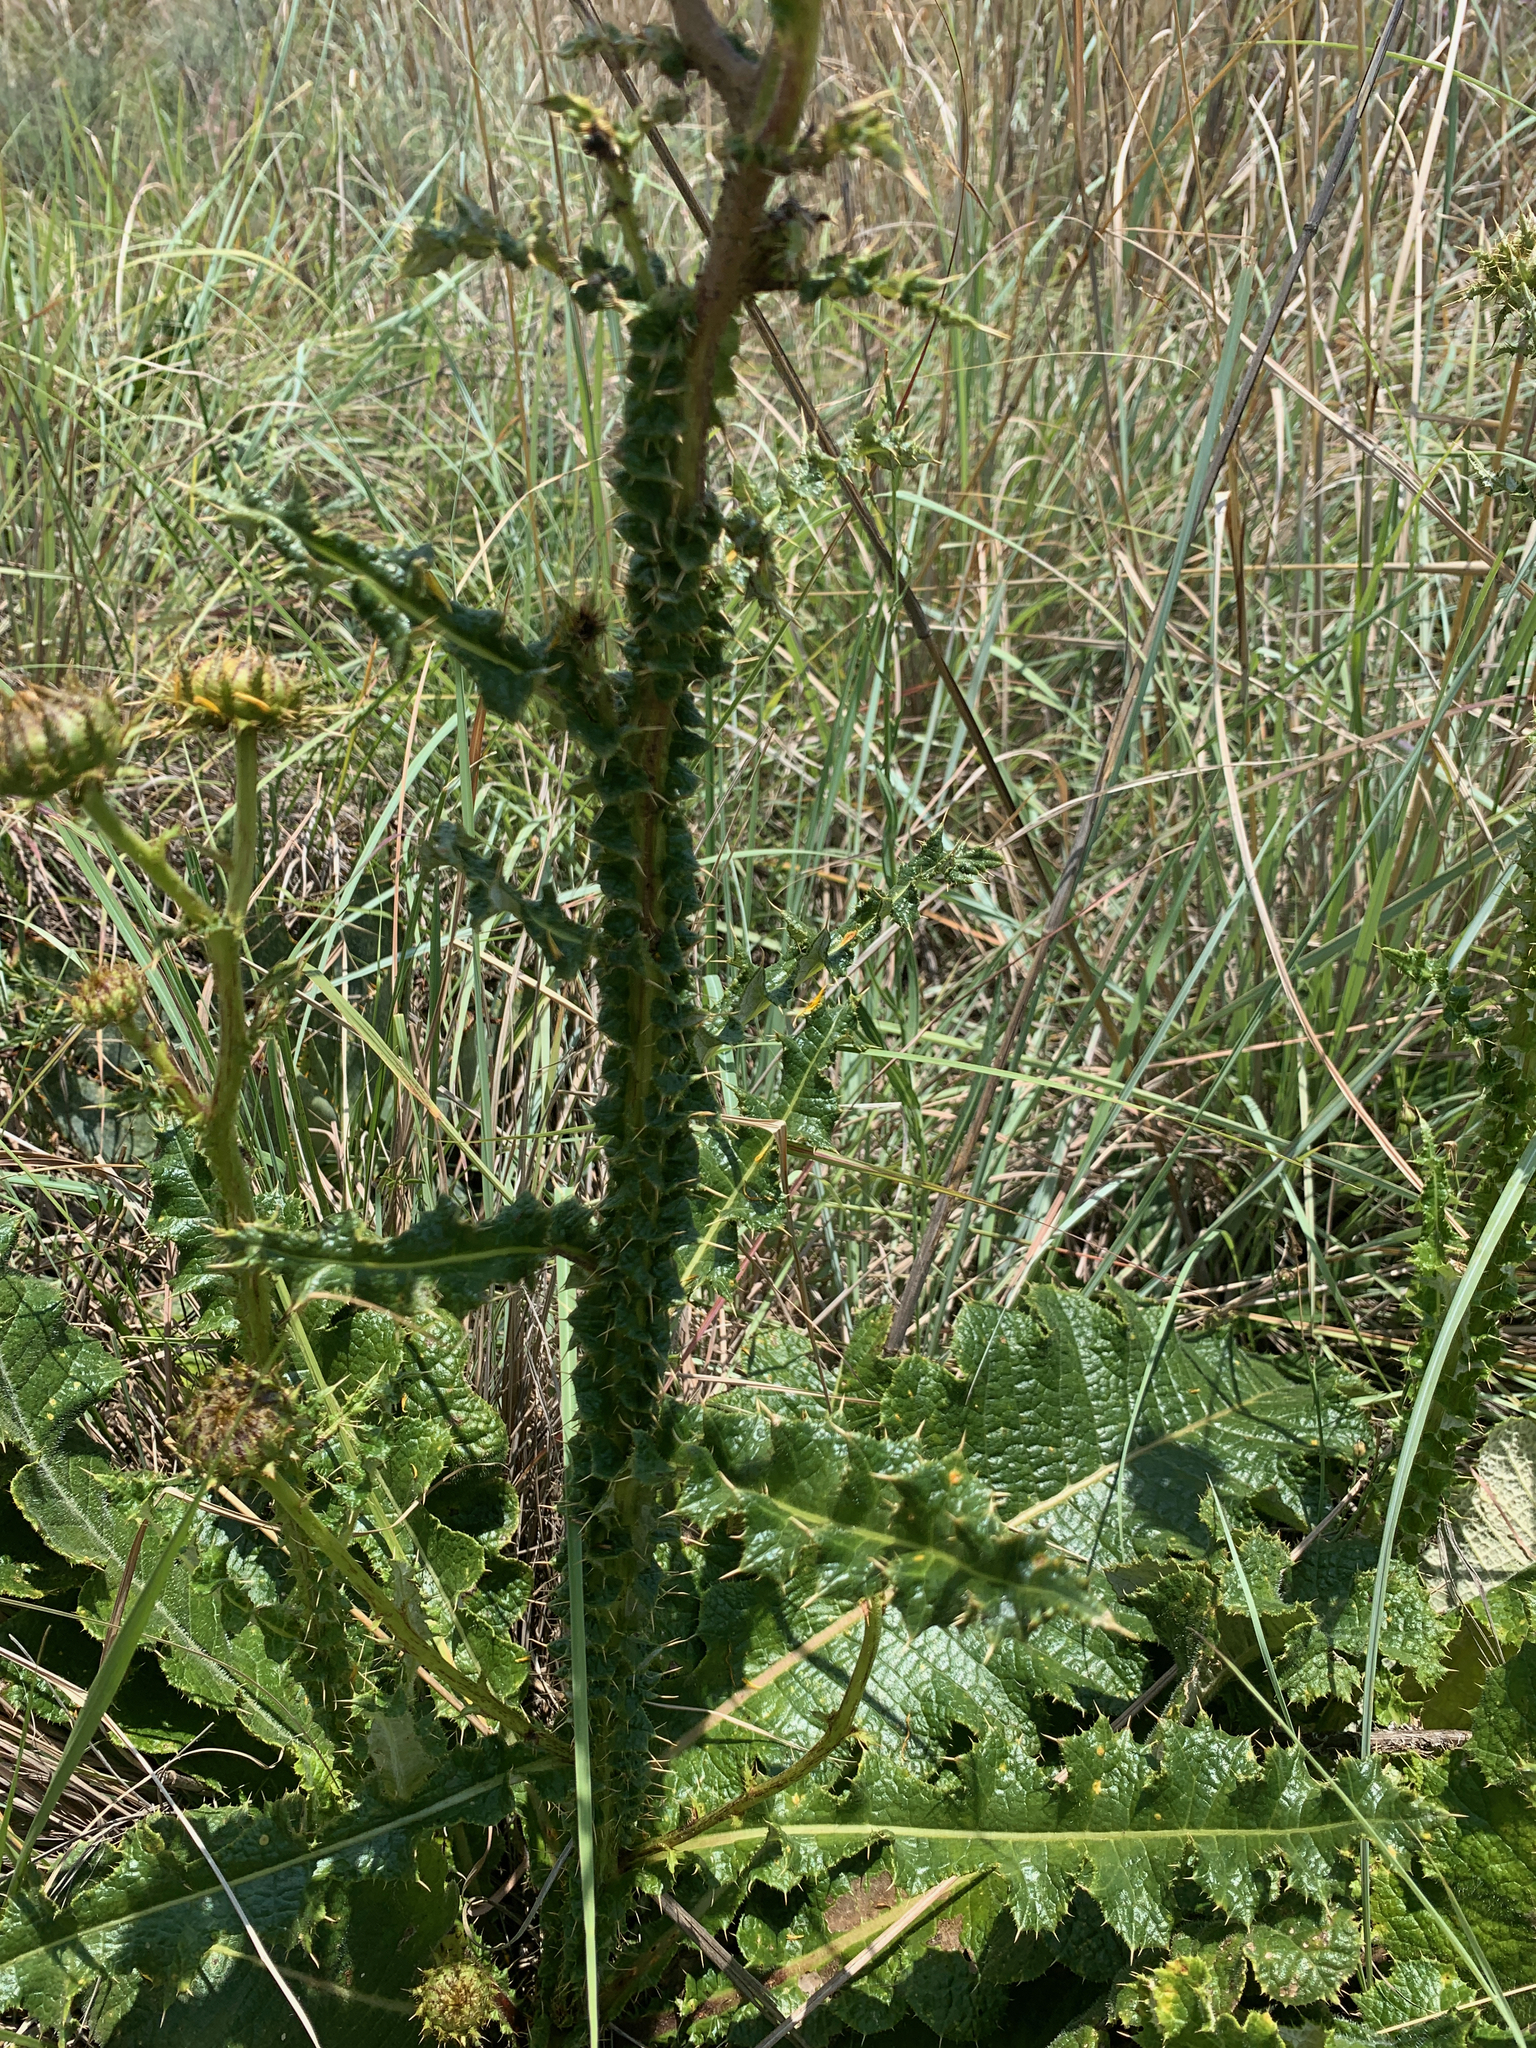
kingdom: Plantae
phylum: Tracheophyta
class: Magnoliopsida
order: Asterales
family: Asteraceae
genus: Berkheya
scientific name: Berkheya radula
